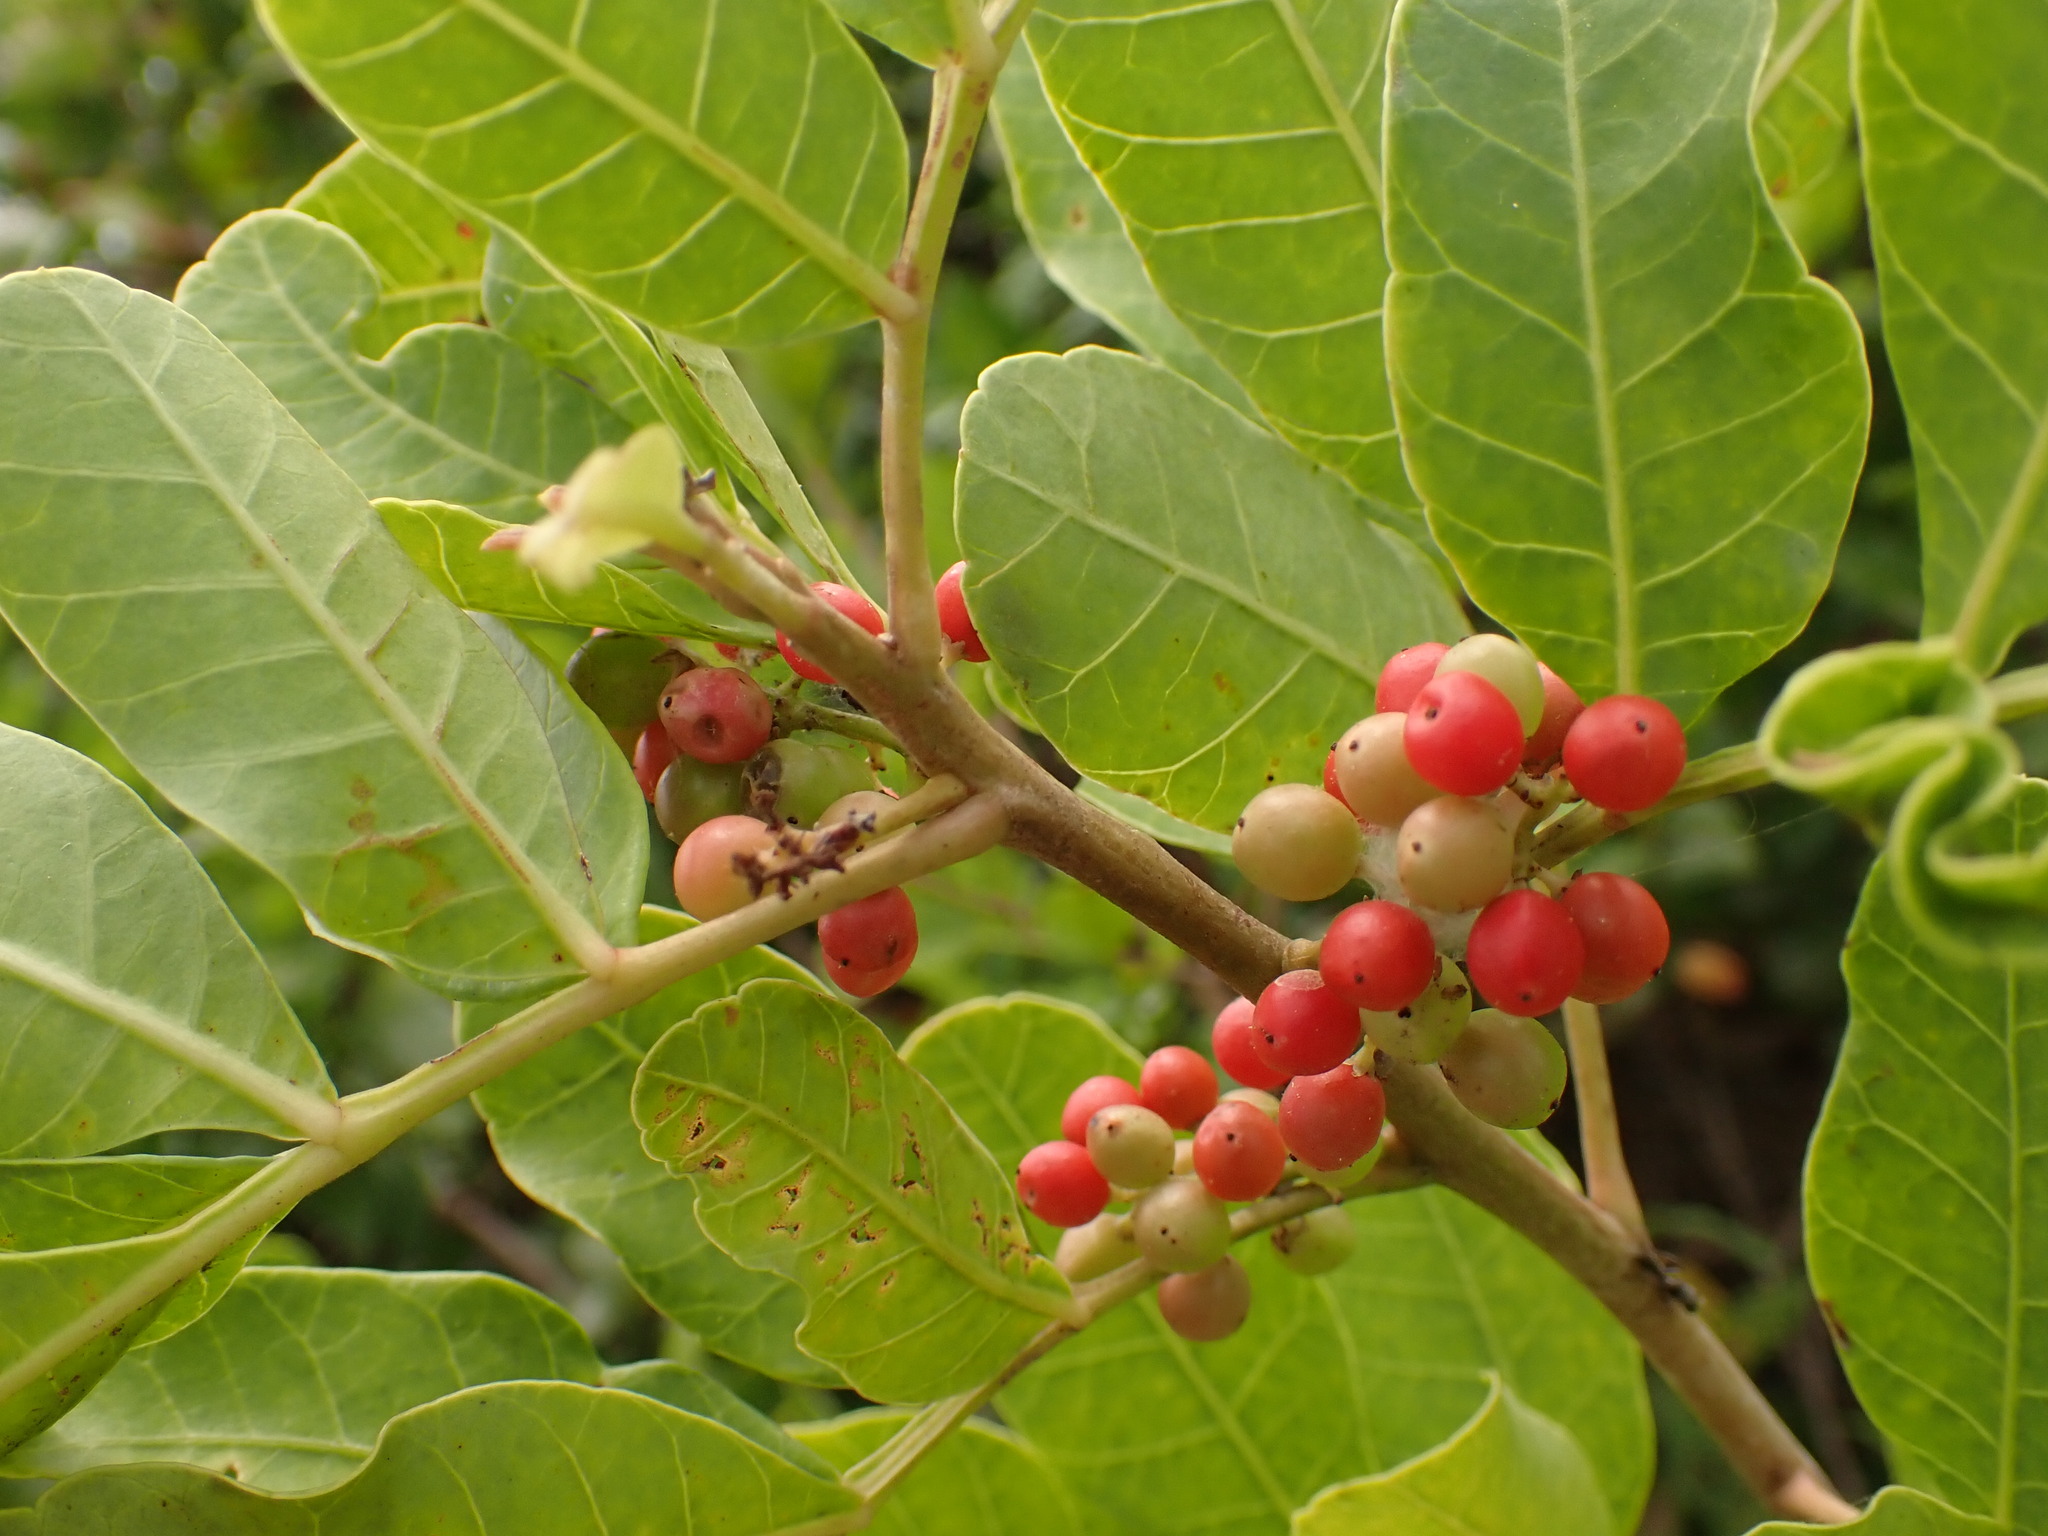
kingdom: Plantae
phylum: Tracheophyta
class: Magnoliopsida
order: Sapindales
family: Anacardiaceae
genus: Schinus
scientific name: Schinus terebinthifolia
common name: Brazilian peppertree
